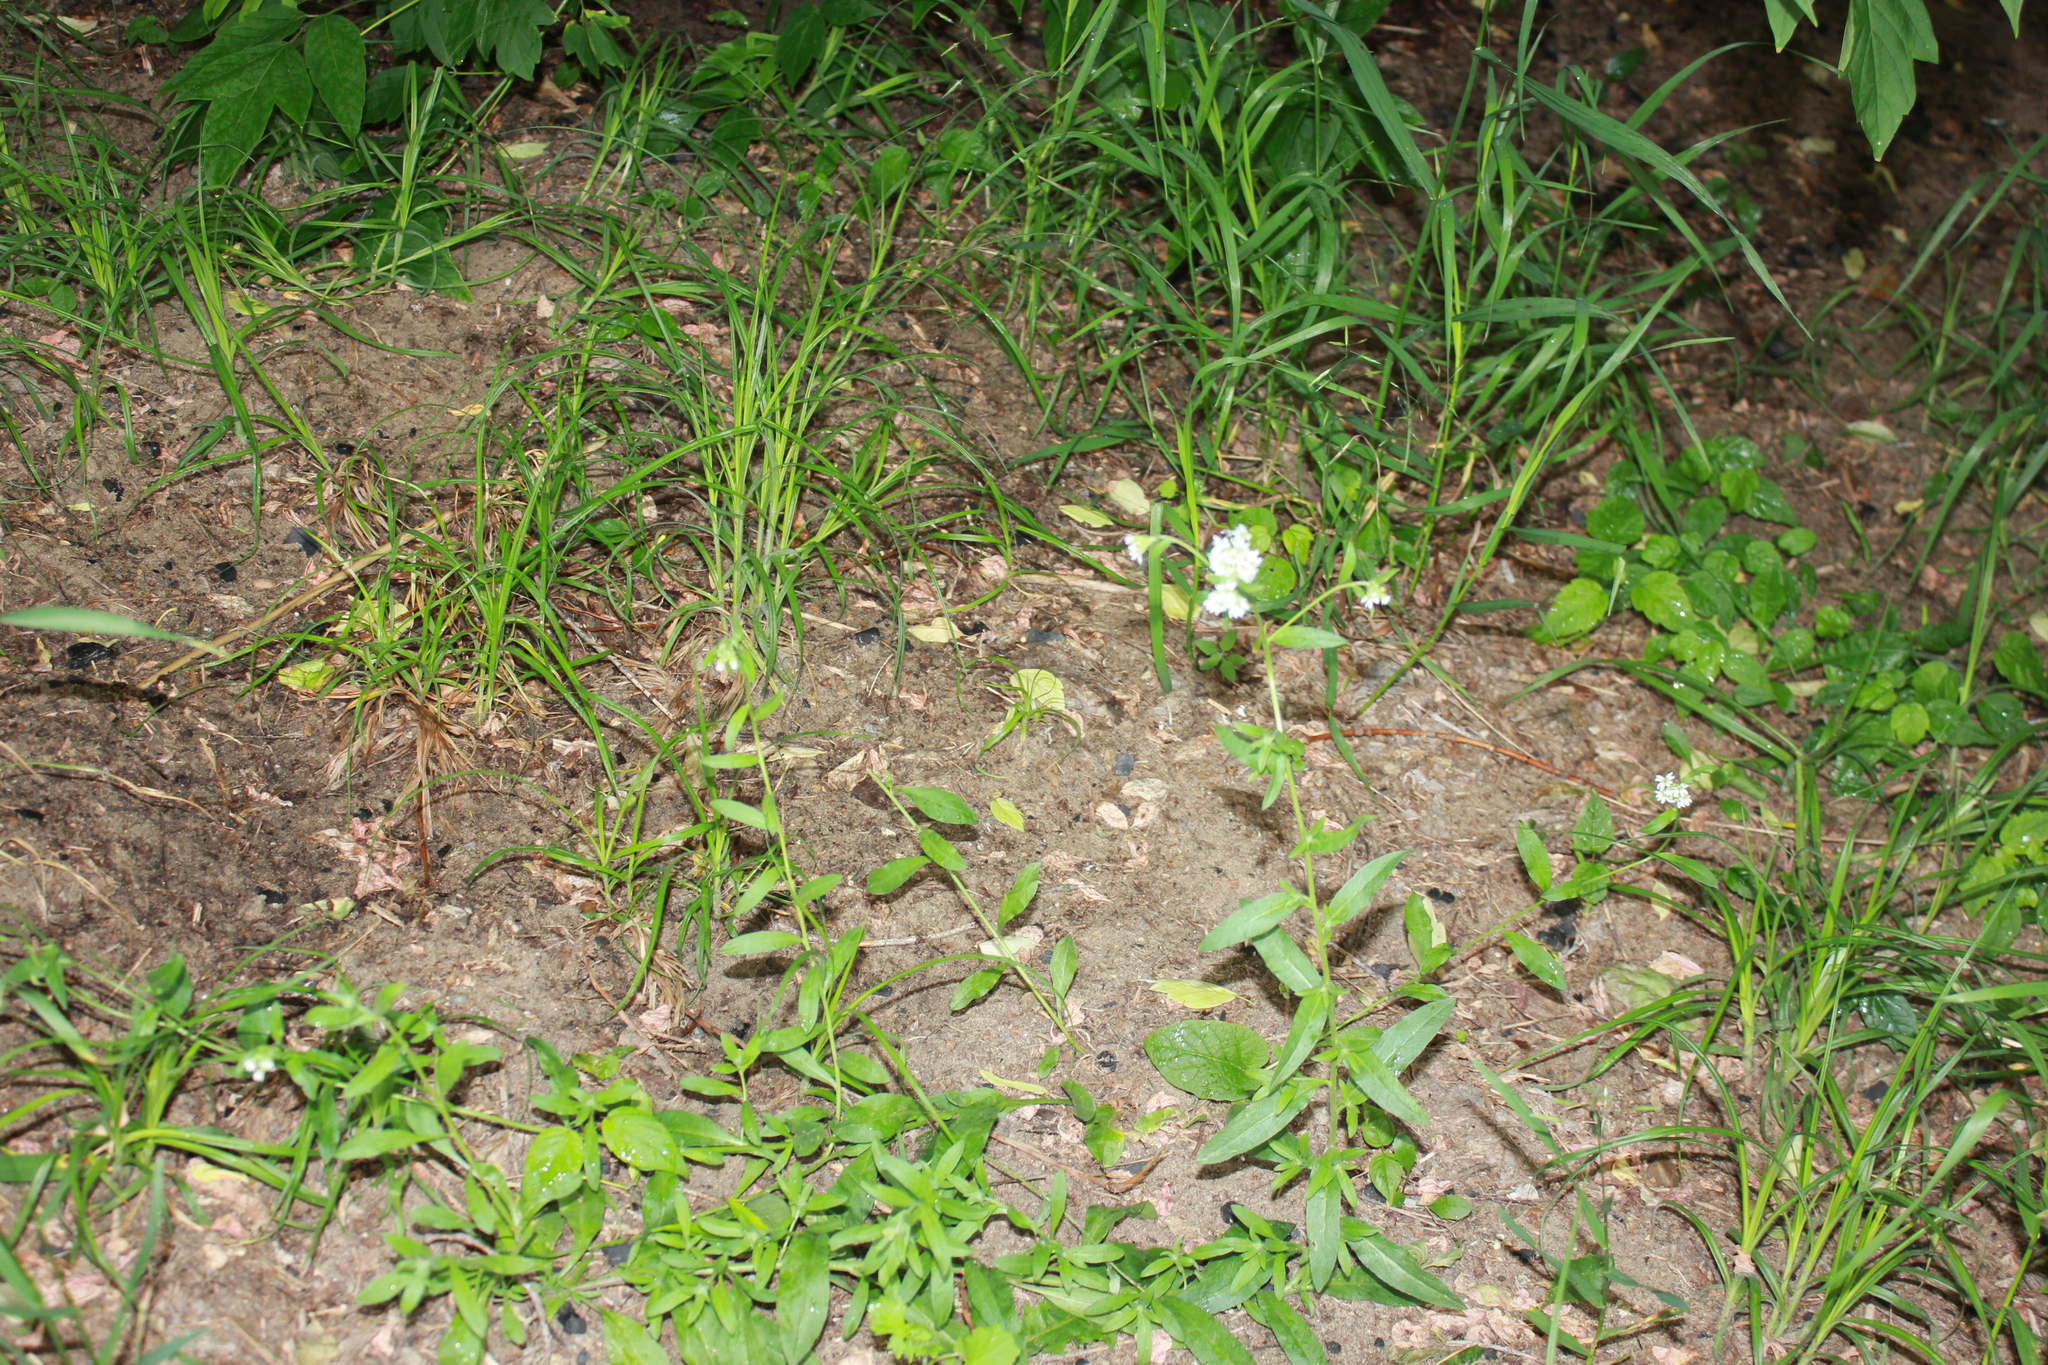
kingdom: Plantae
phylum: Tracheophyta
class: Magnoliopsida
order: Brassicales
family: Brassicaceae
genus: Berteroa
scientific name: Berteroa incana
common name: Hoary alison
